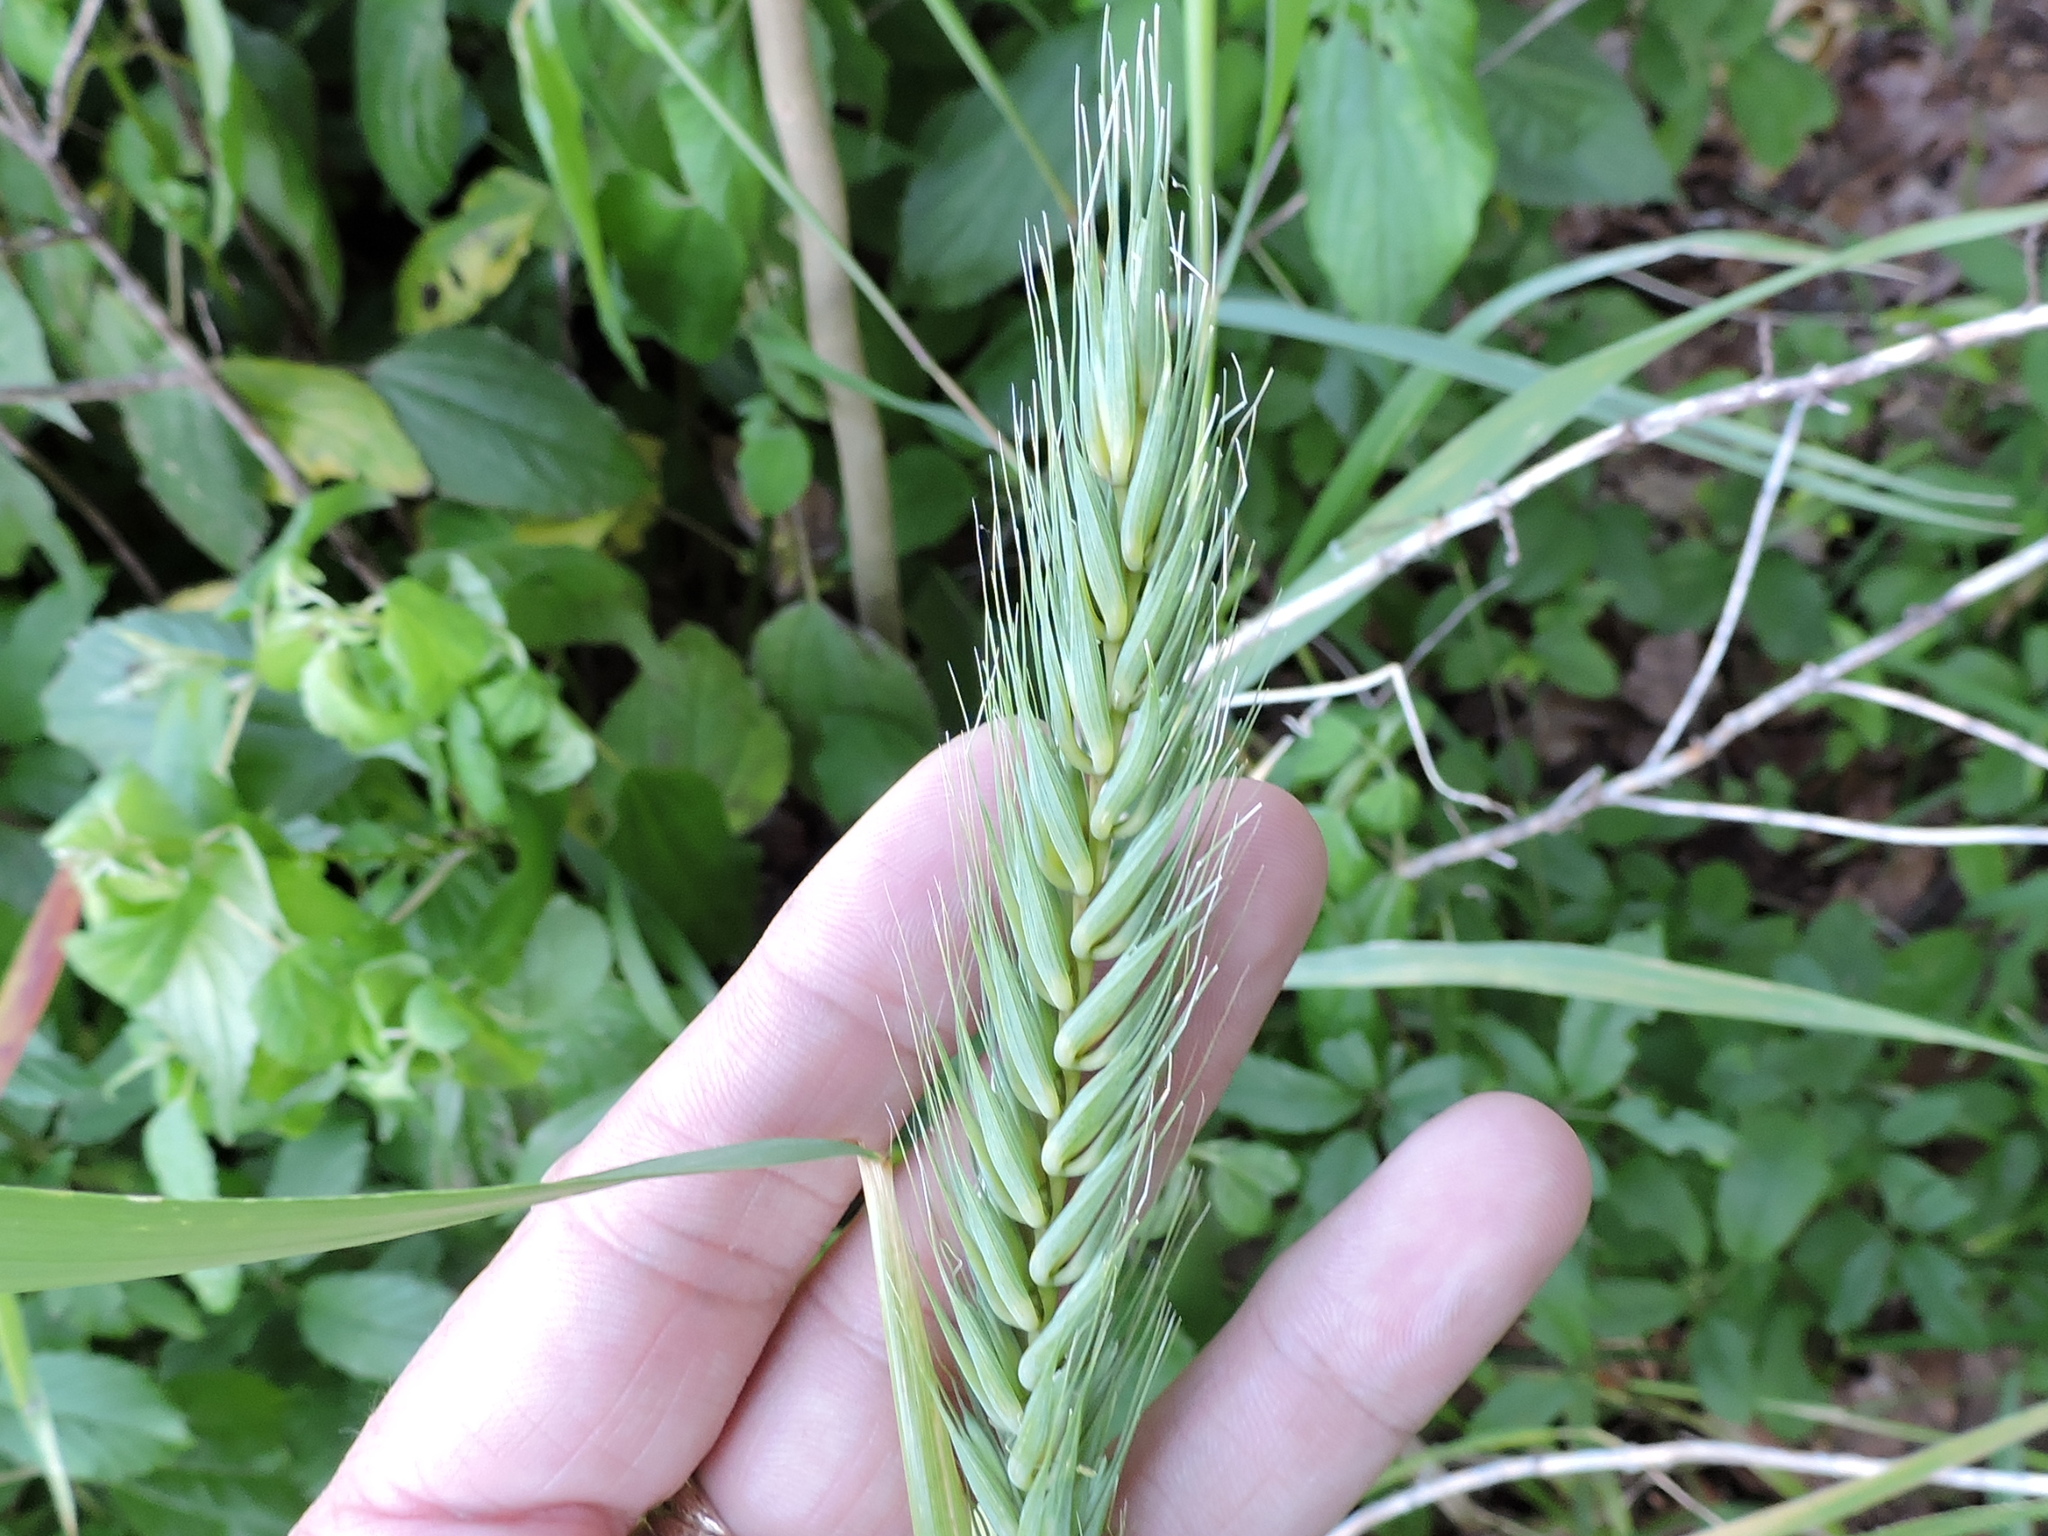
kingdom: Plantae
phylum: Tracheophyta
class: Liliopsida
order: Poales
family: Poaceae
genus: Elymus
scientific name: Elymus virginicus
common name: Common eastern wildrye
